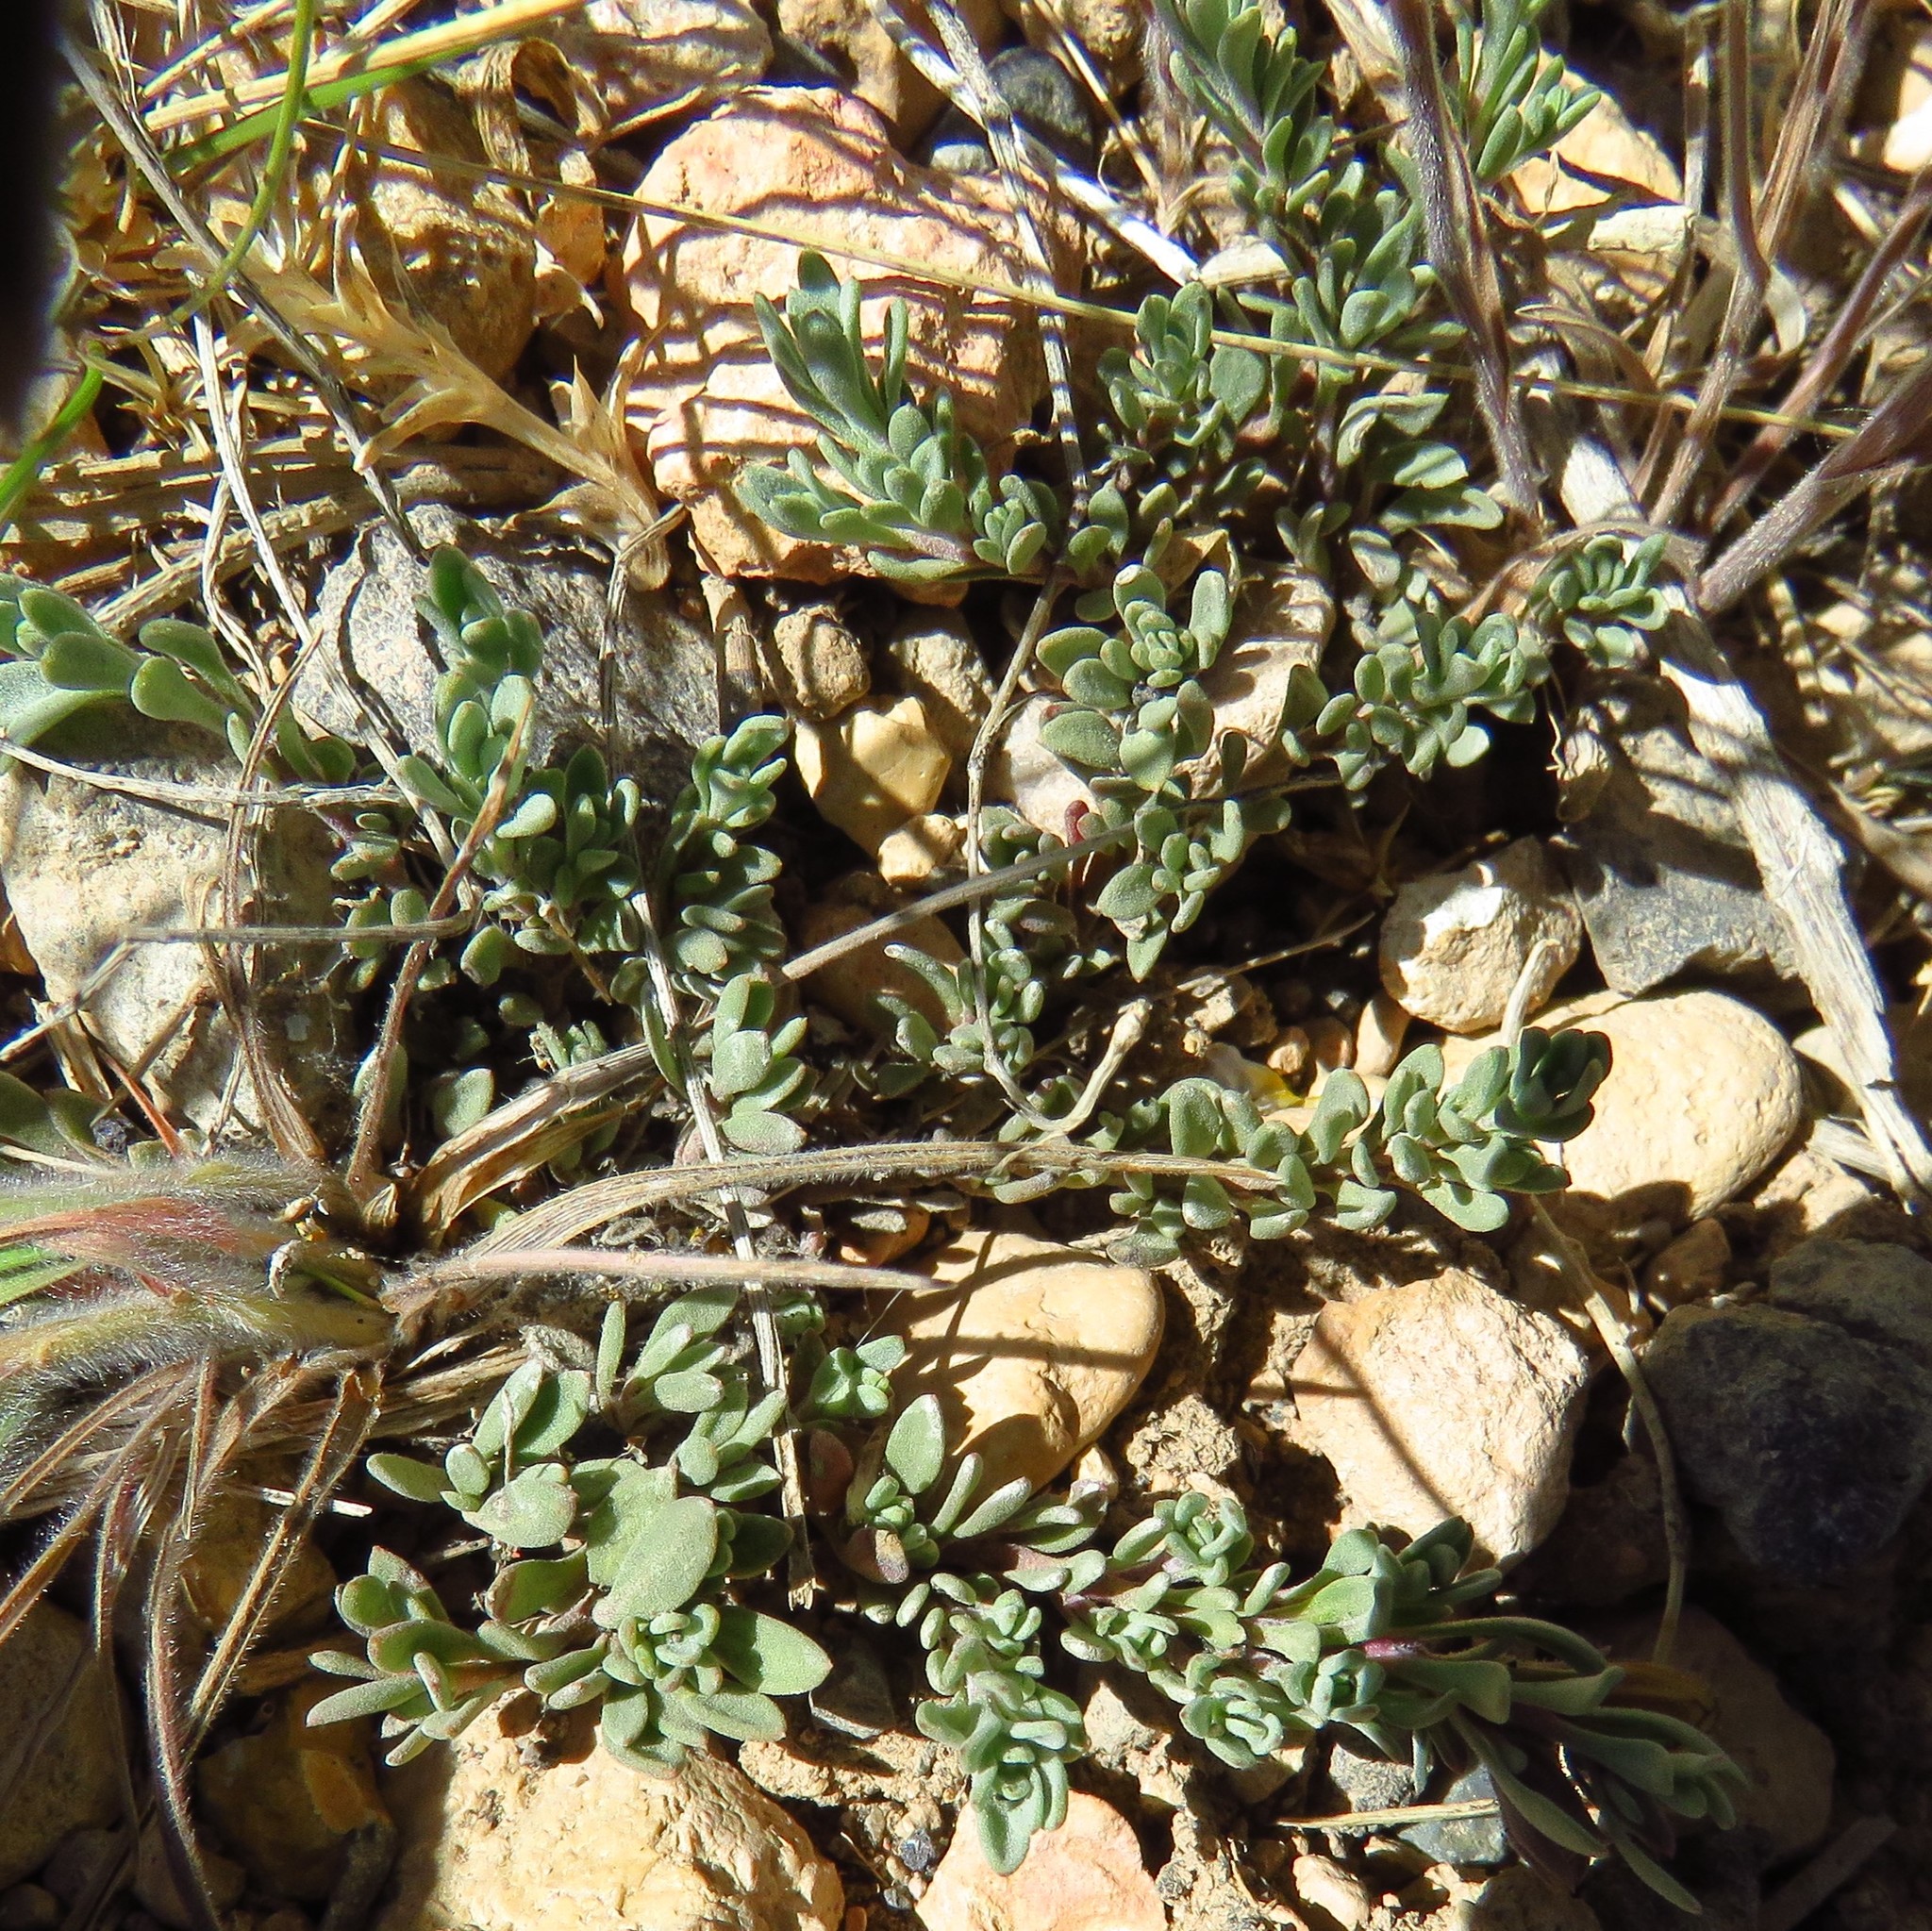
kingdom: Plantae
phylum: Tracheophyta
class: Magnoliopsida
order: Lamiales
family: Plantaginaceae
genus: Penstemon
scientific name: Penstemon caespitosus
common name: Mat penstemon
